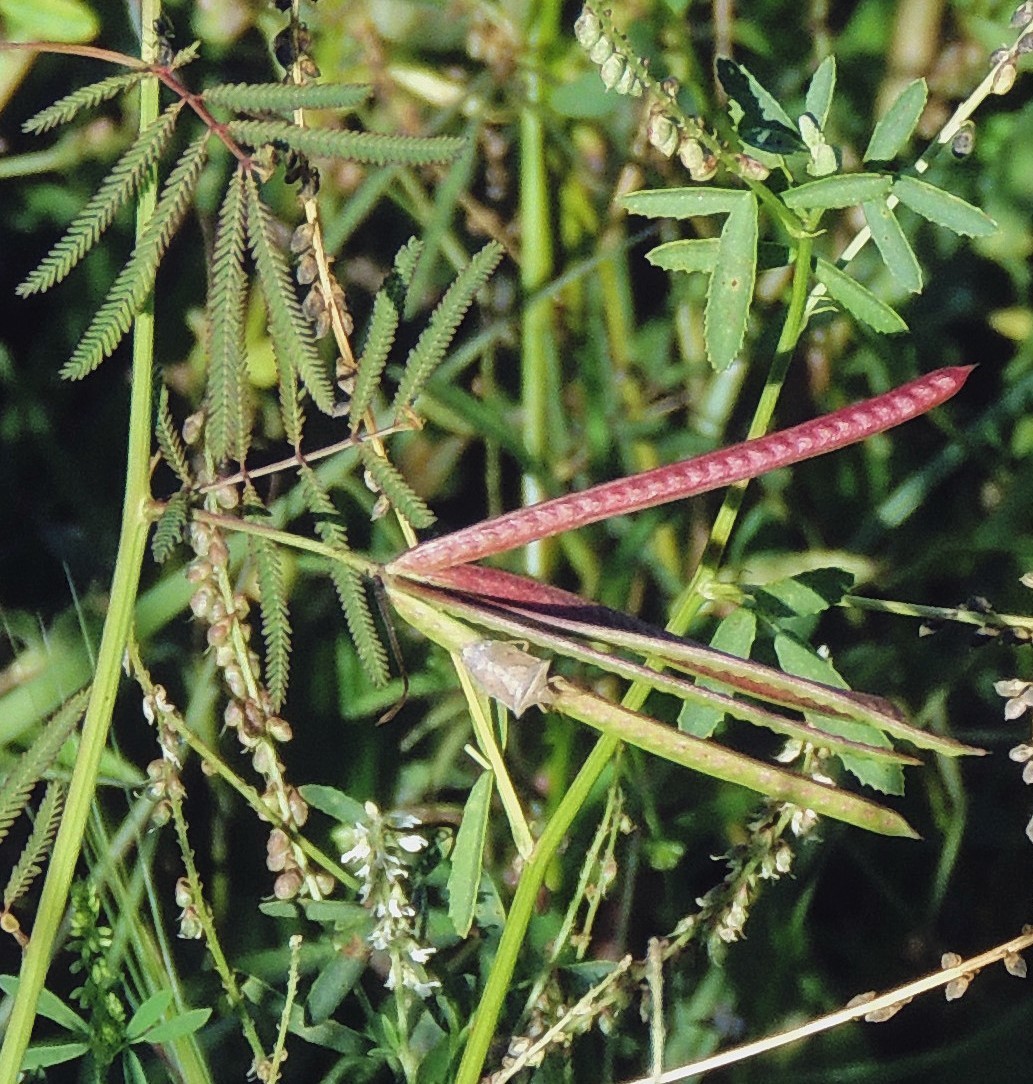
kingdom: Plantae
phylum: Tracheophyta
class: Magnoliopsida
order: Fabales
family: Fabaceae
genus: Desmanthus
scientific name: Desmanthus acuminatus
